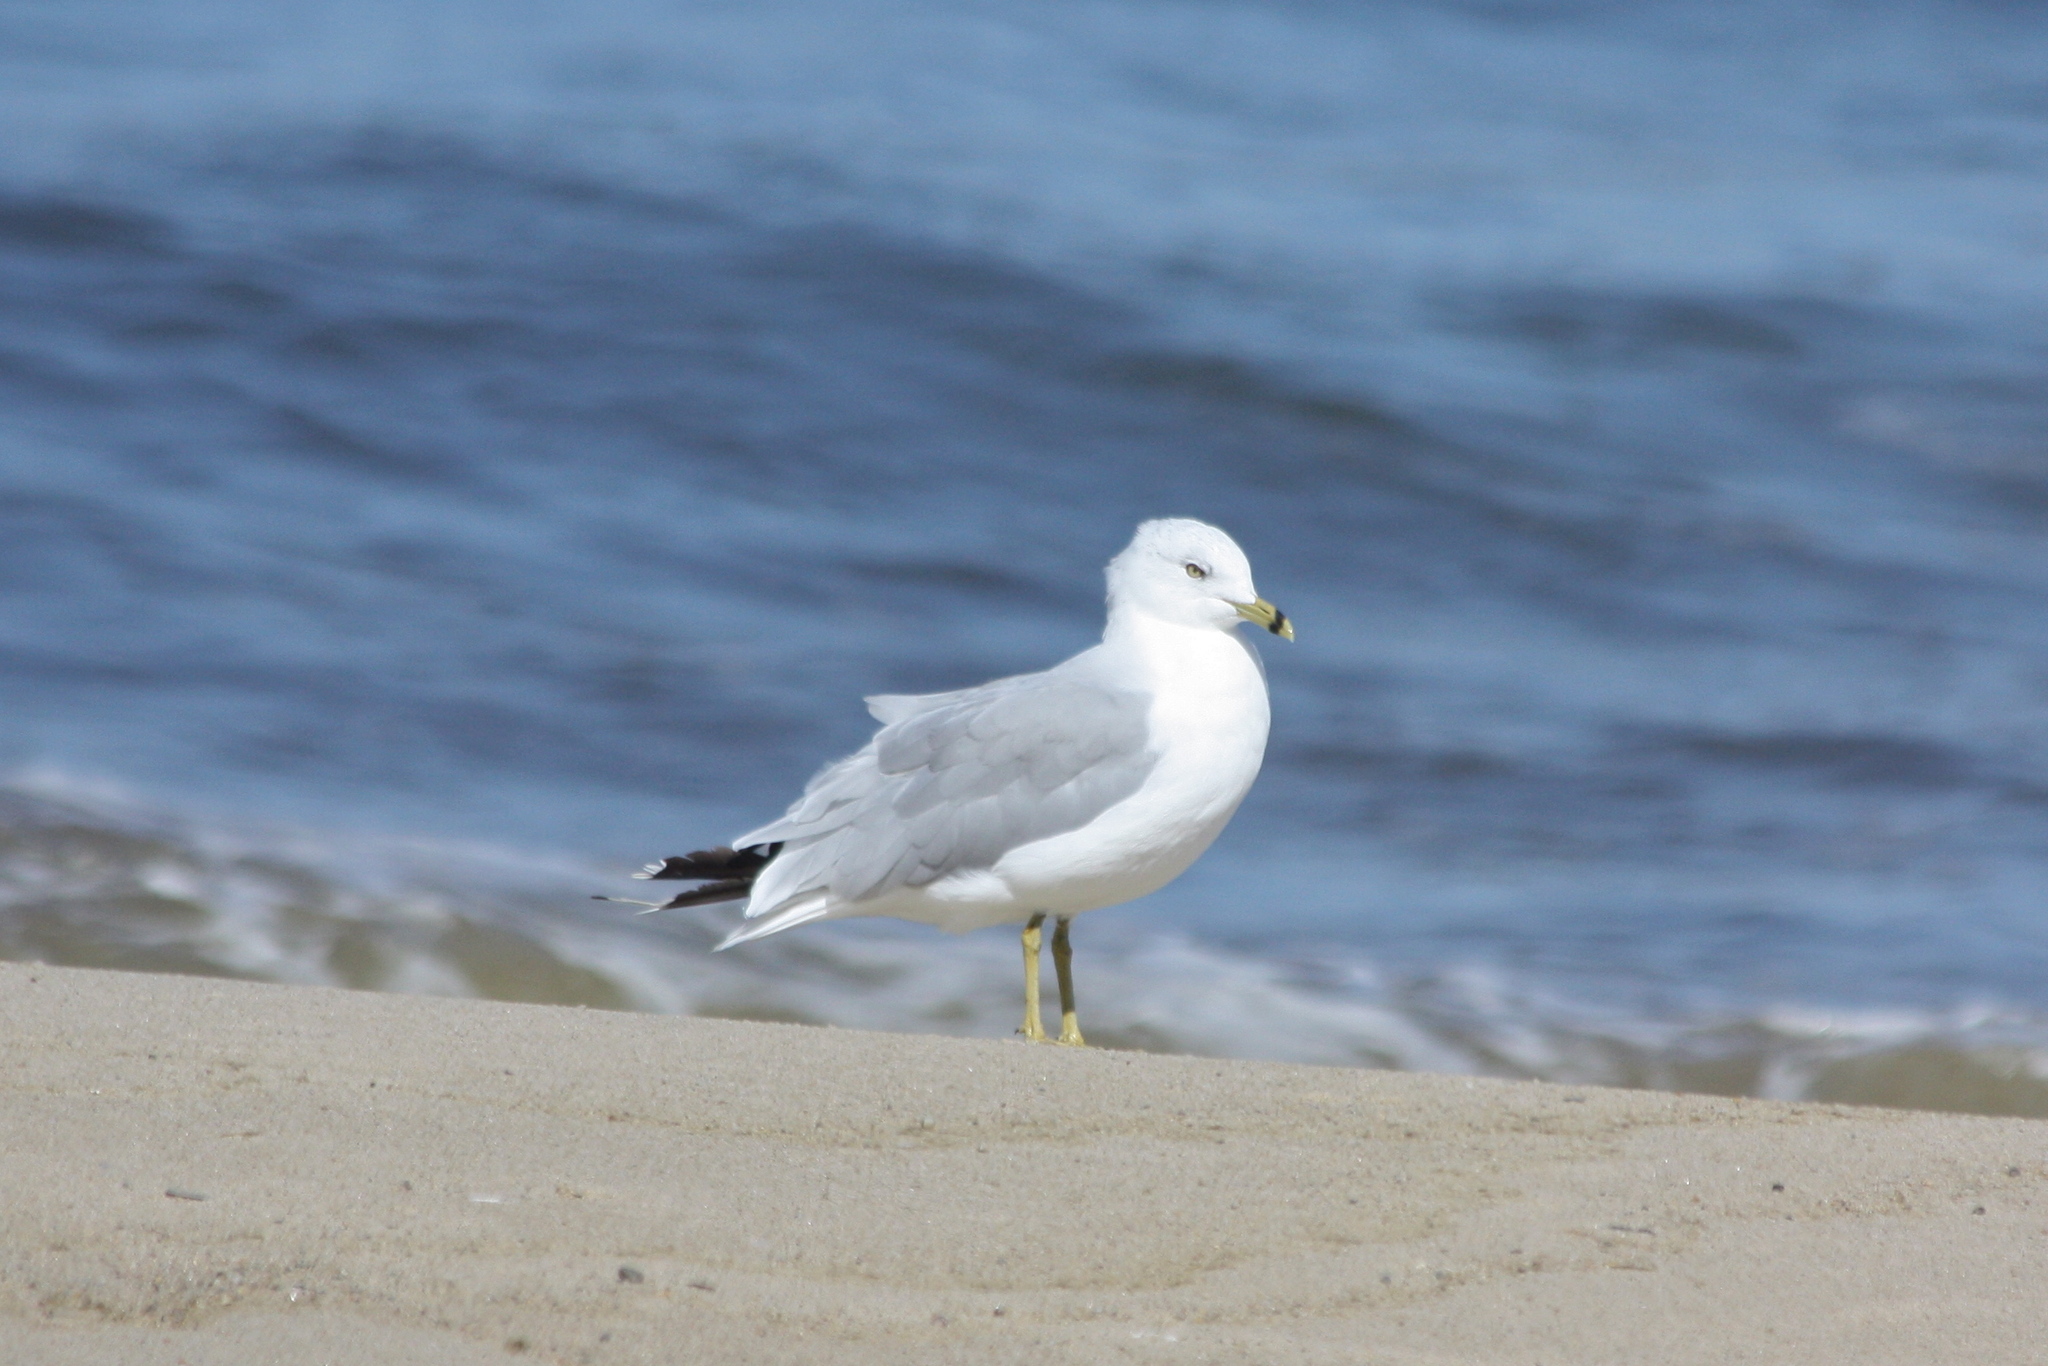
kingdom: Animalia
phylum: Chordata
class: Aves
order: Charadriiformes
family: Laridae
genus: Larus
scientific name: Larus delawarensis
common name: Ring-billed gull
